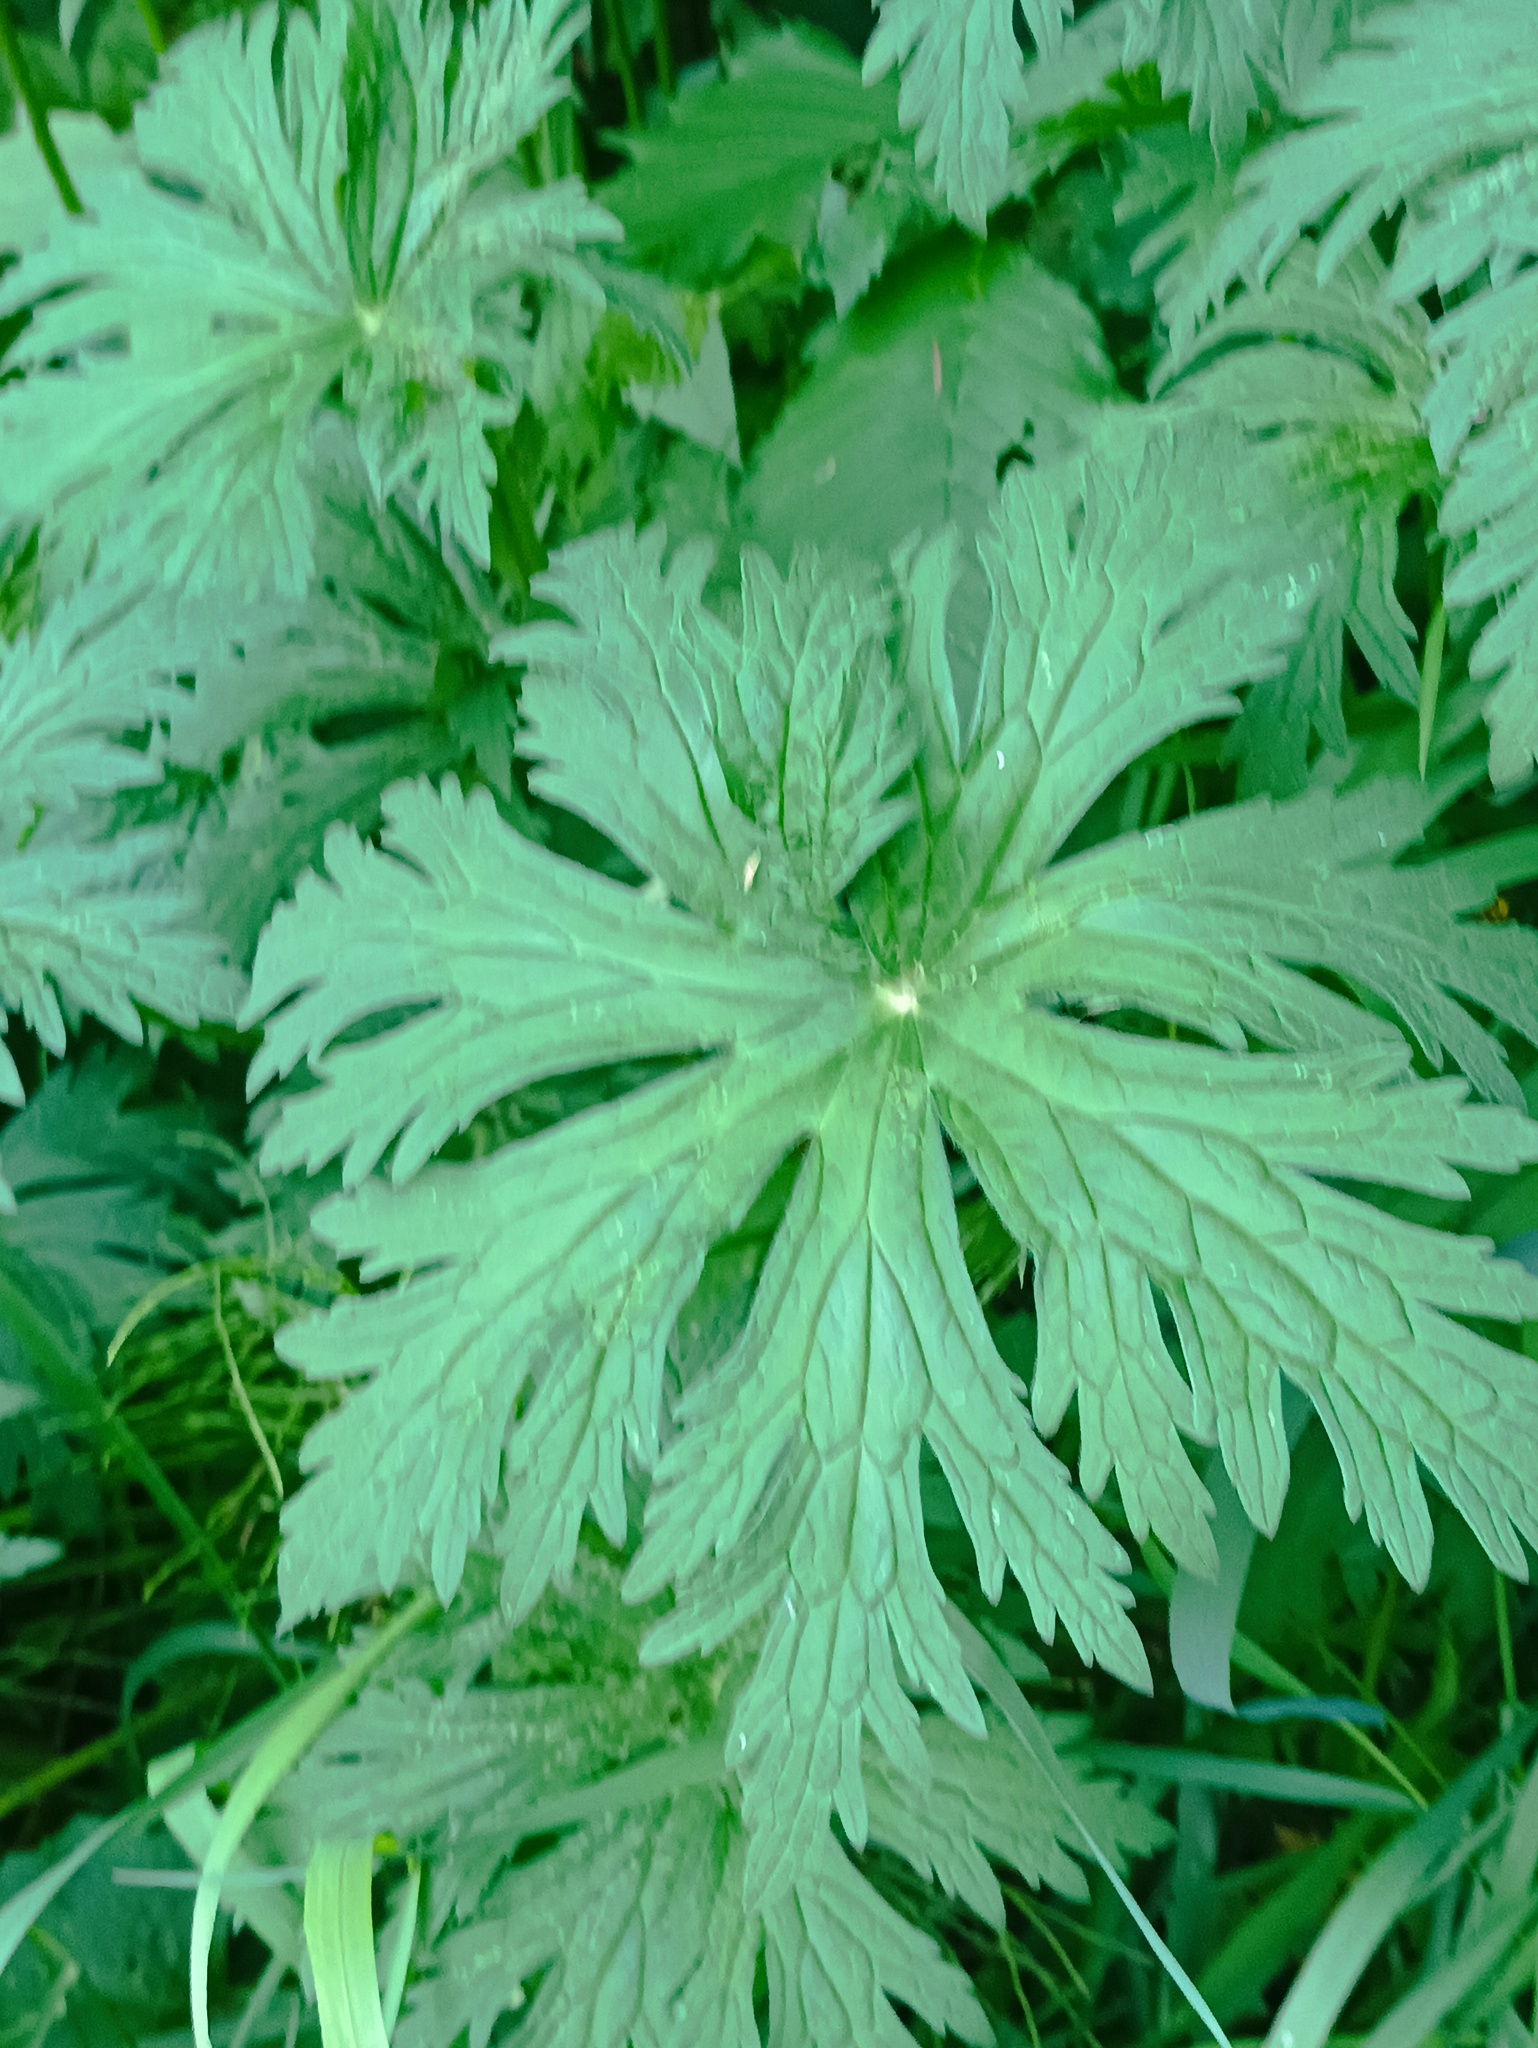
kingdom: Plantae
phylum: Tracheophyta
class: Magnoliopsida
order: Geraniales
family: Geraniaceae
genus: Geranium
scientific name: Geranium pratense
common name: Meadow crane's-bill
